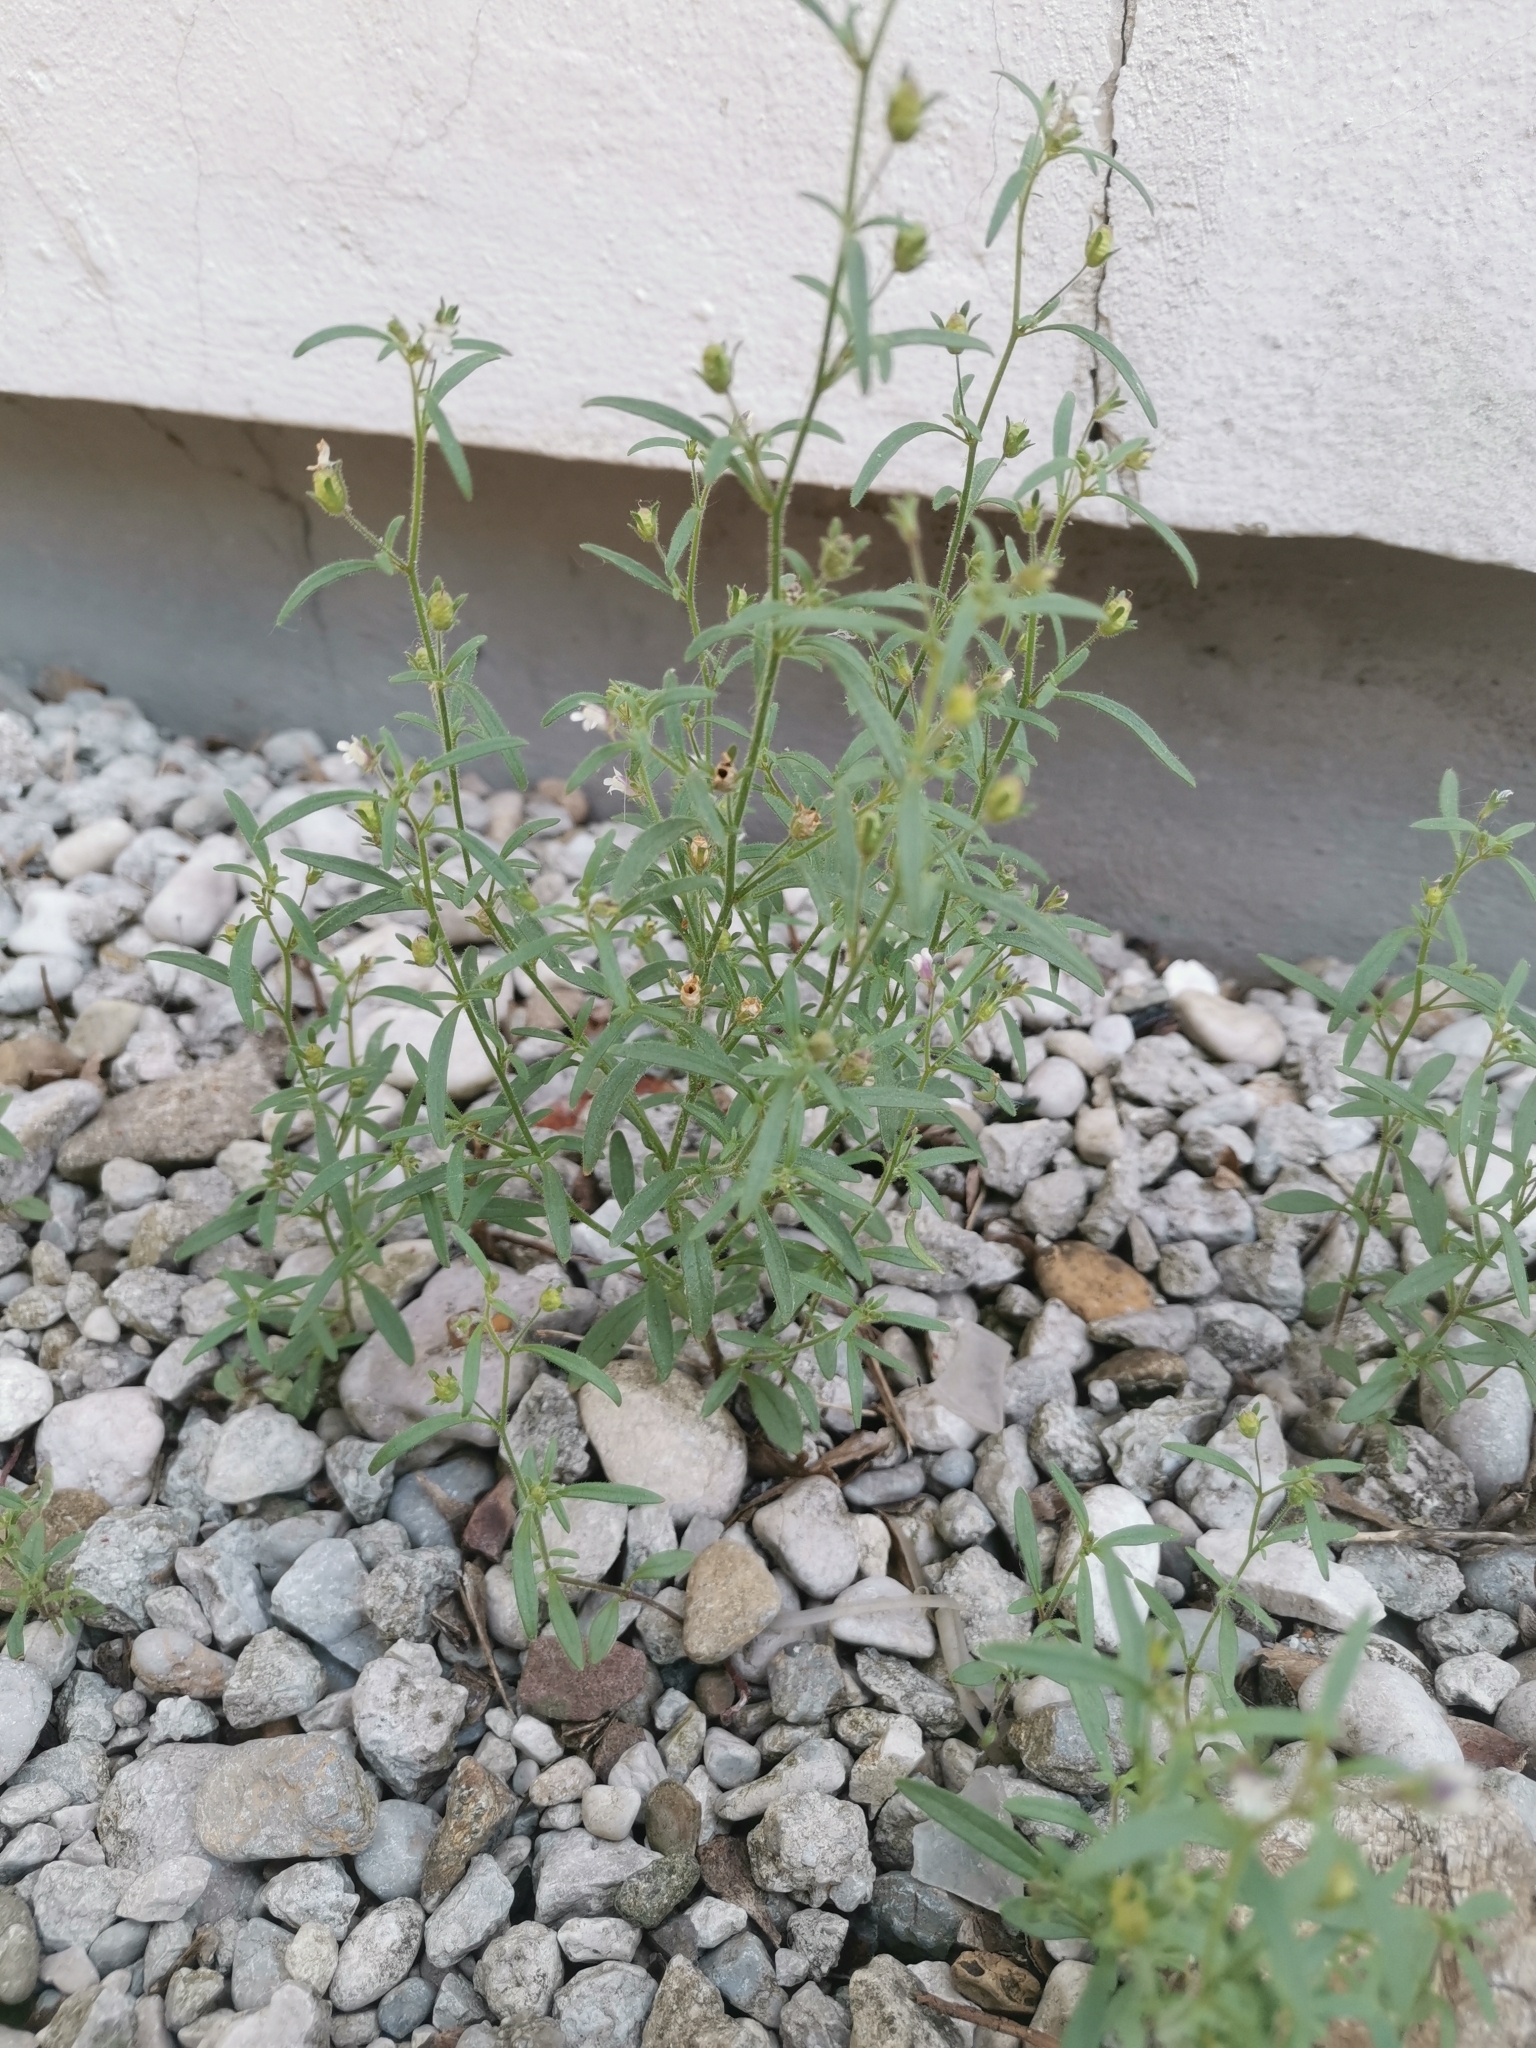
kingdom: Plantae
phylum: Tracheophyta
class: Magnoliopsida
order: Lamiales
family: Plantaginaceae
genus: Chaenorhinum
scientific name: Chaenorhinum minus
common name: Dwarf snapdragon
